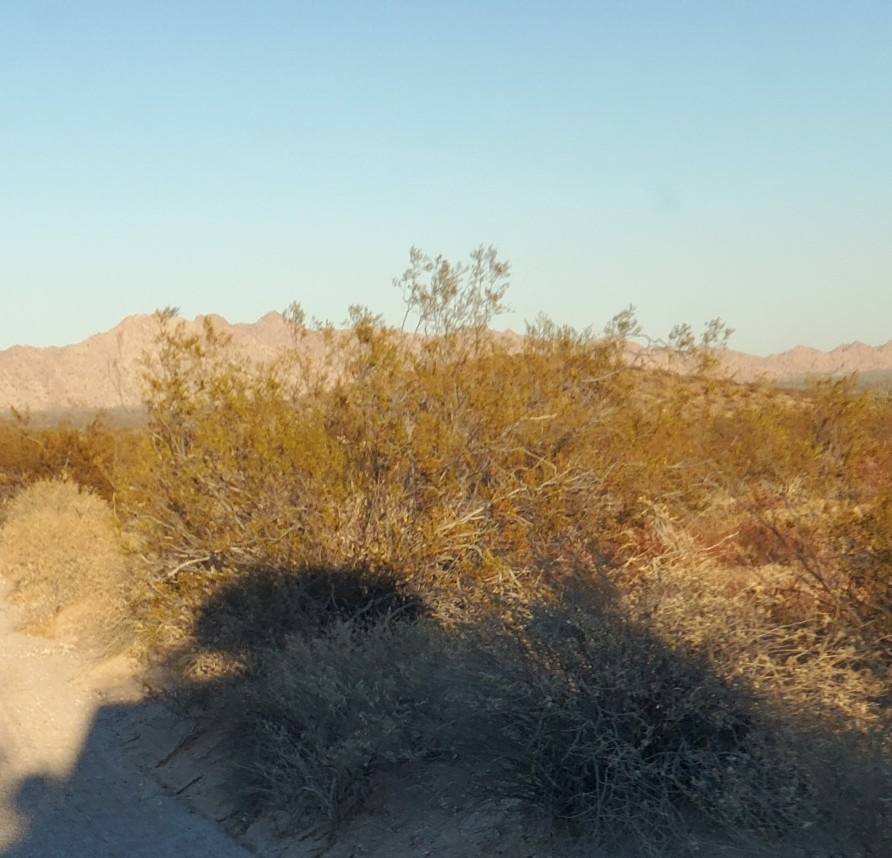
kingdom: Plantae
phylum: Tracheophyta
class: Magnoliopsida
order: Zygophyllales
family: Zygophyllaceae
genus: Larrea
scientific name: Larrea tridentata
